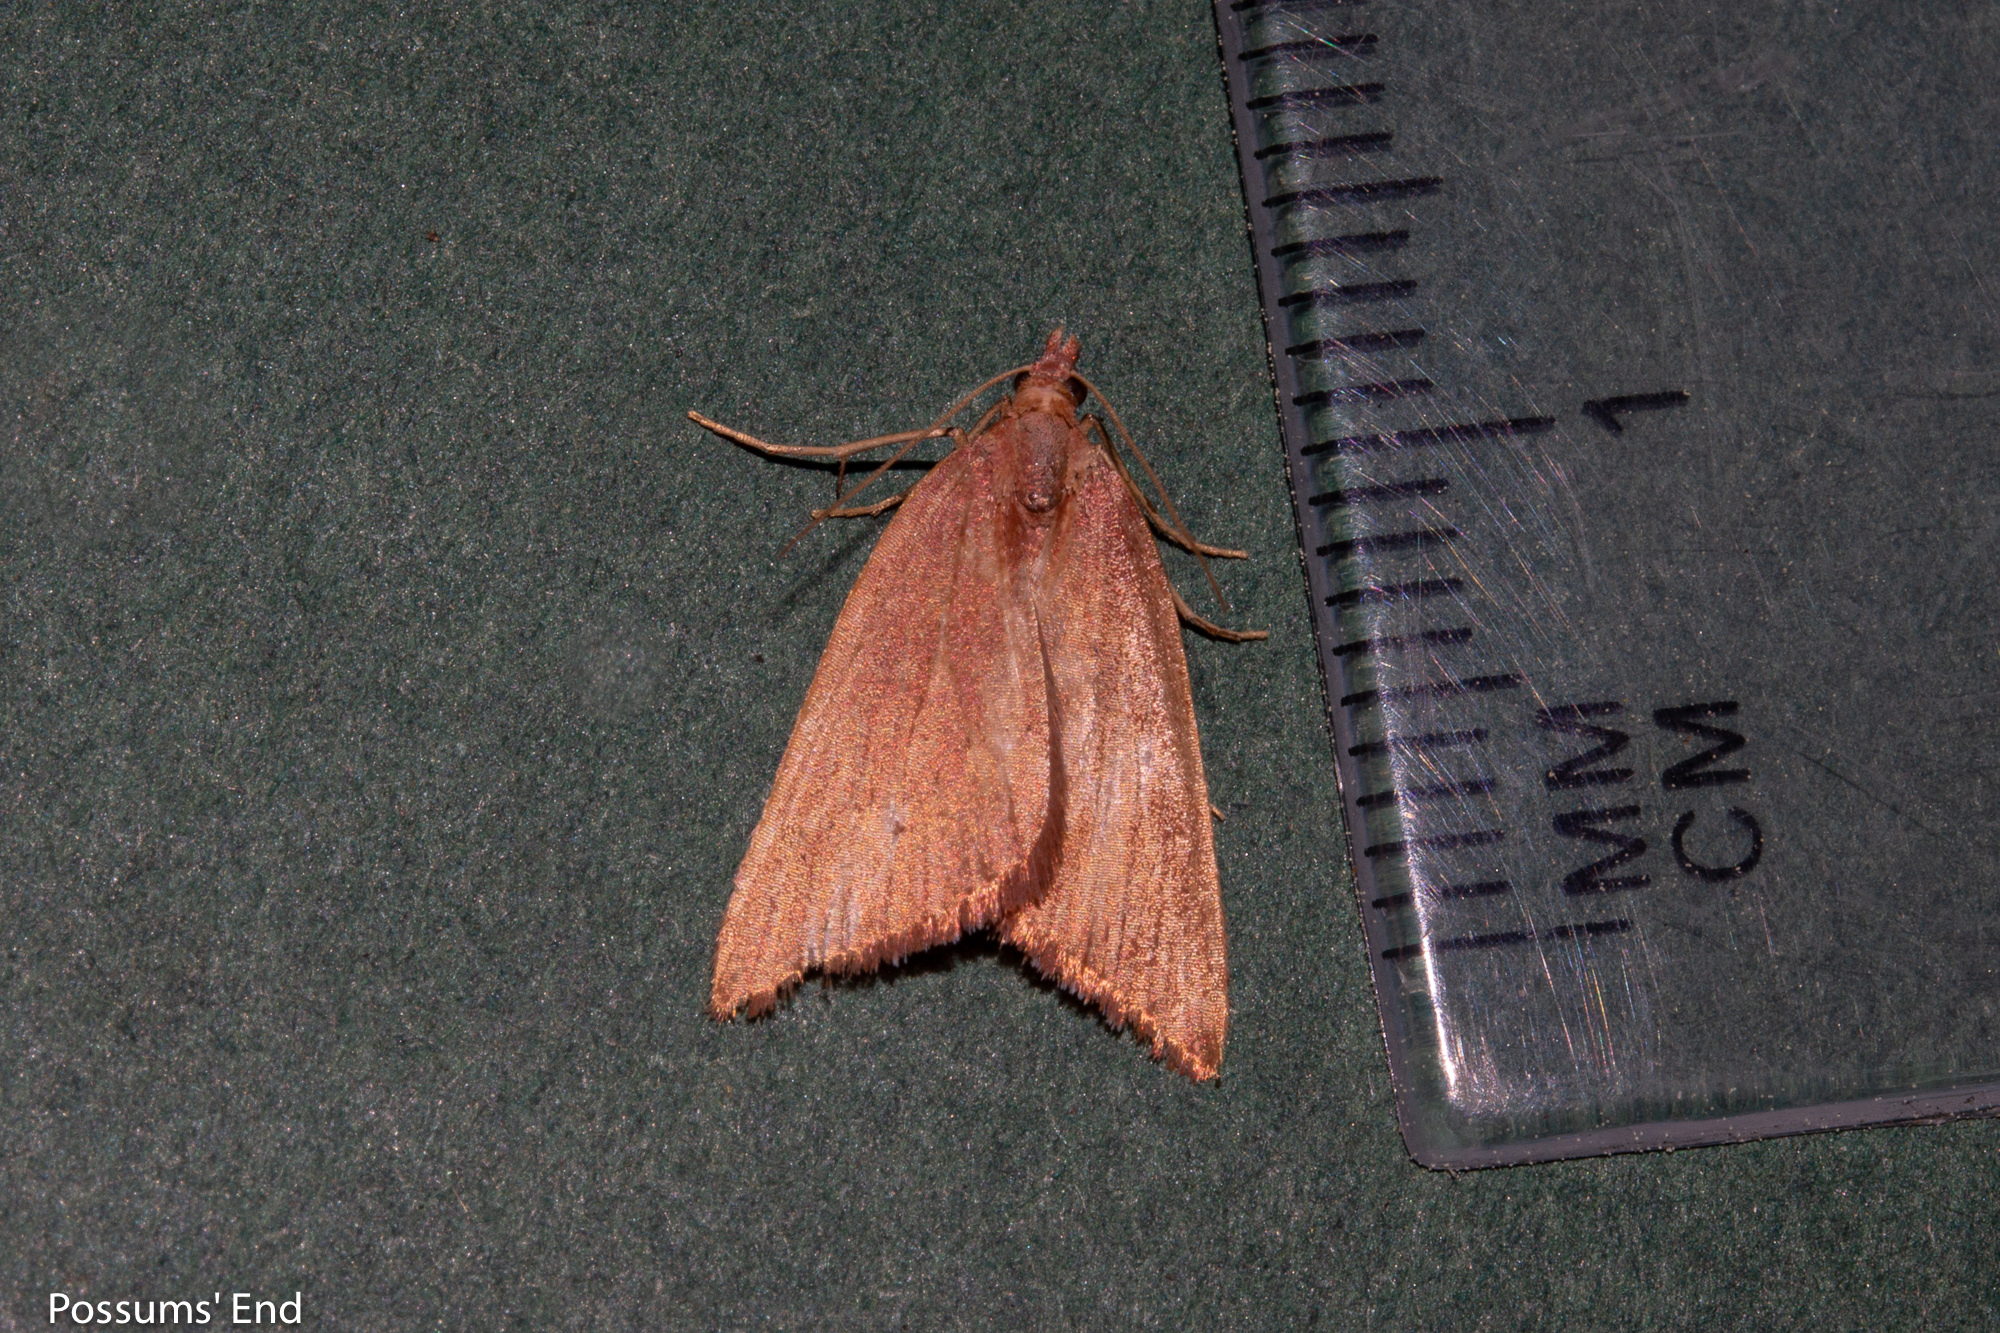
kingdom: Animalia
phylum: Arthropoda
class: Insecta
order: Lepidoptera
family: Geometridae
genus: Xanthorhoe
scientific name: Xanthorhoe occulta
